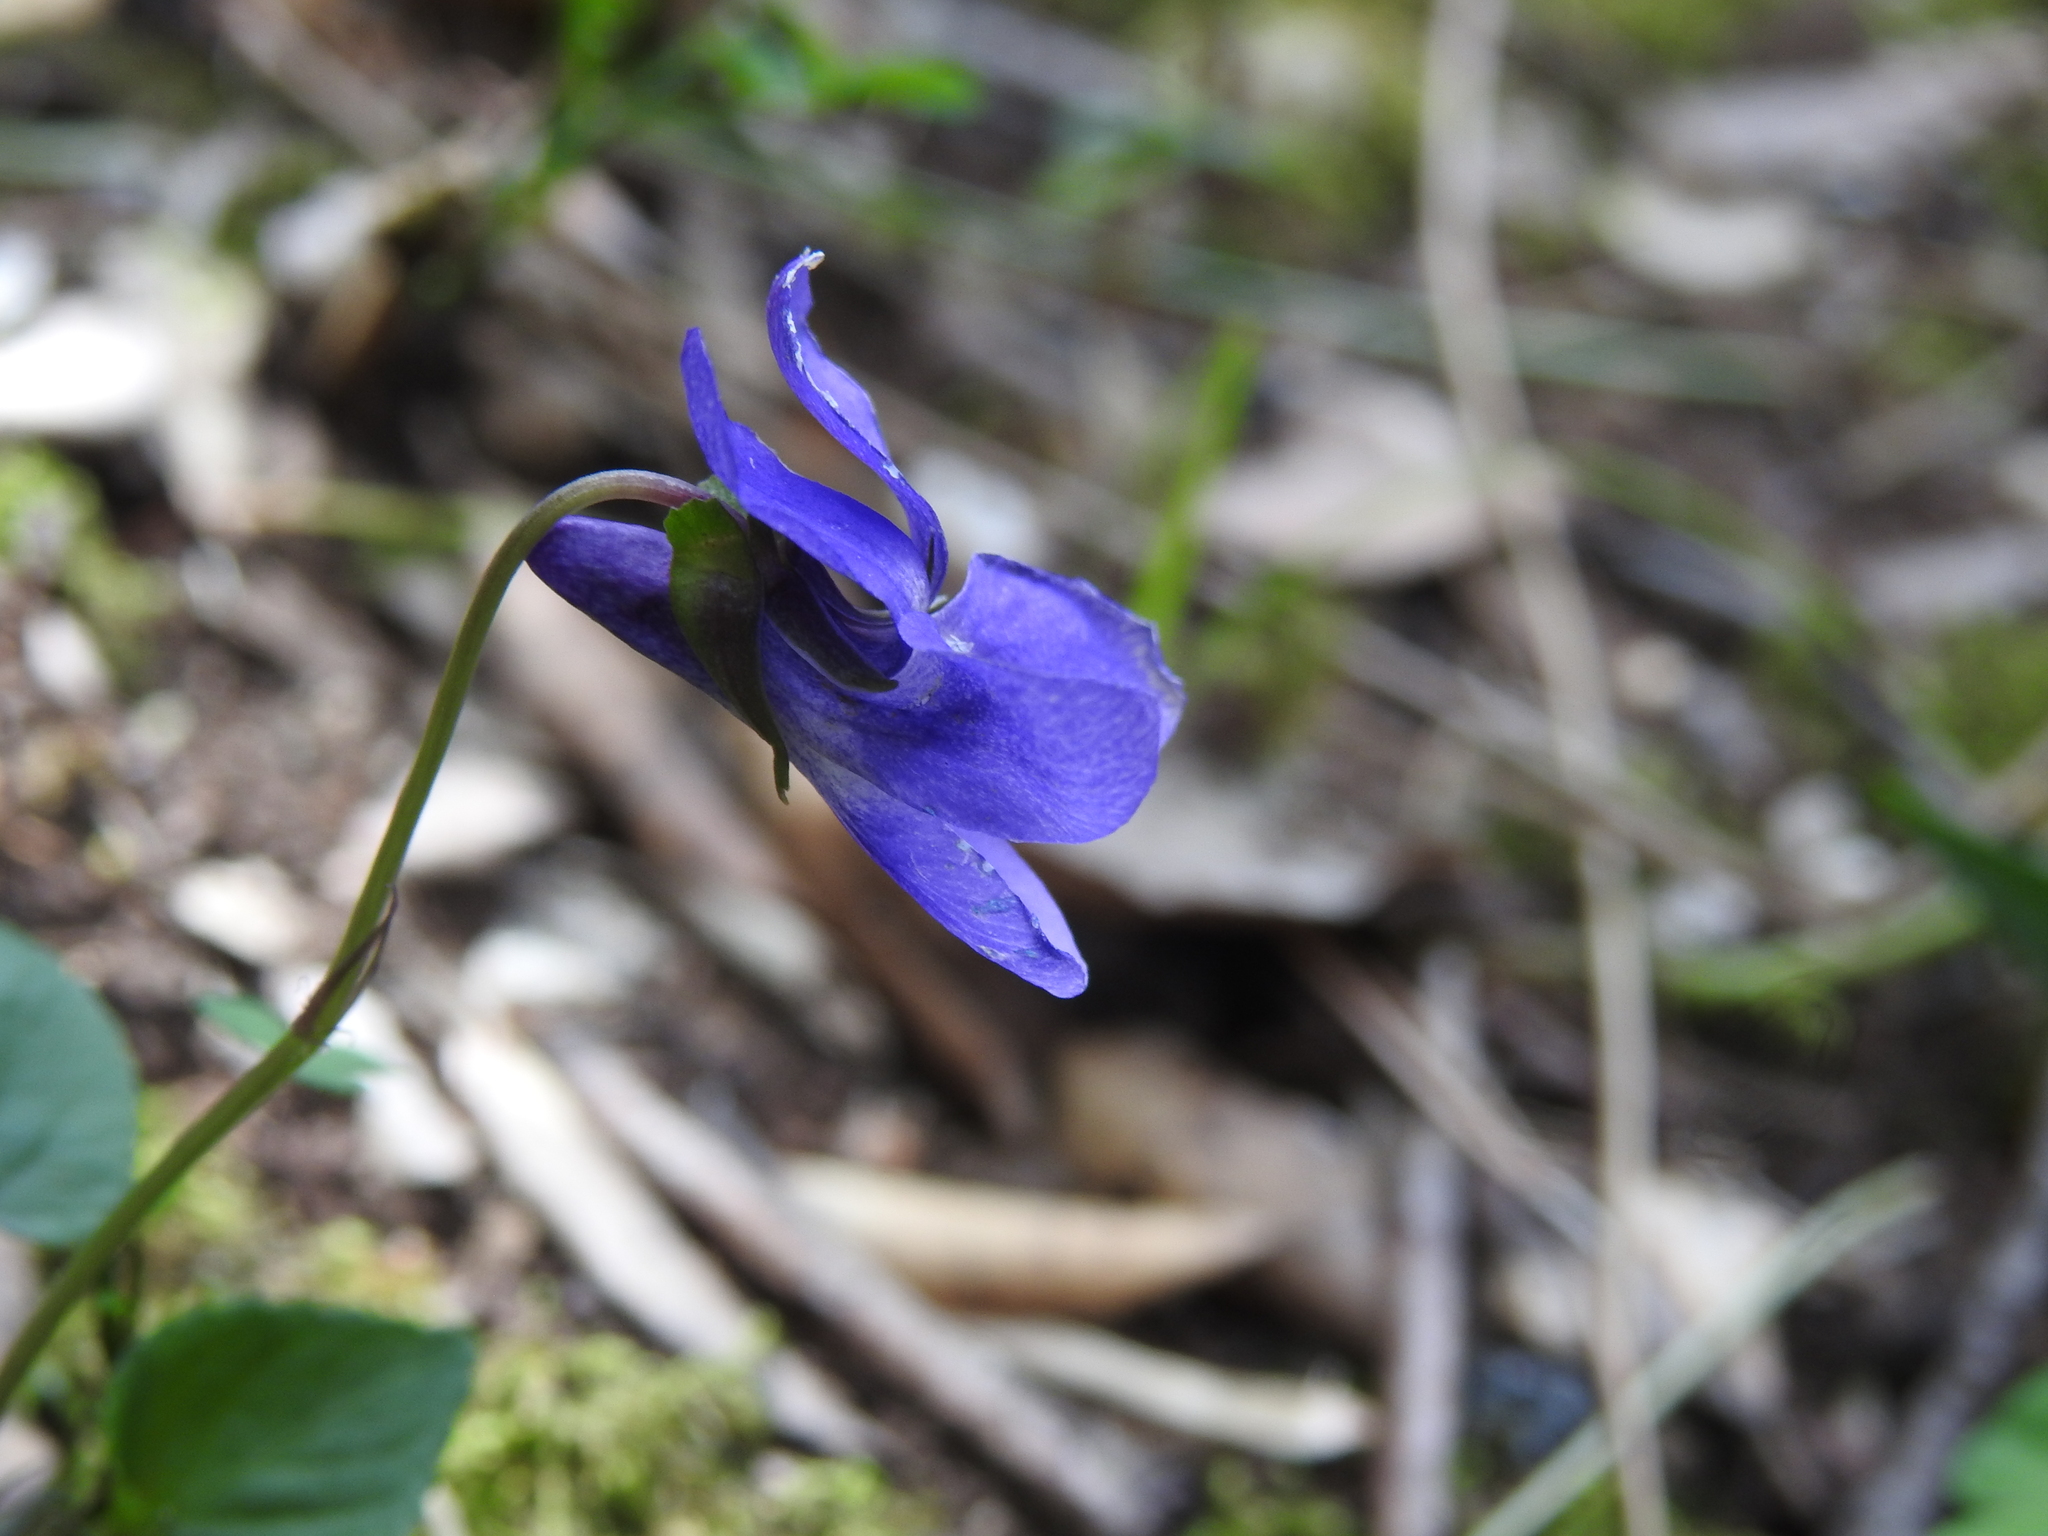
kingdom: Plantae
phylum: Tracheophyta
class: Magnoliopsida
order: Malpighiales
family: Violaceae
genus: Viola
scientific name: Viola reichenbachiana
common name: Early dog-violet
